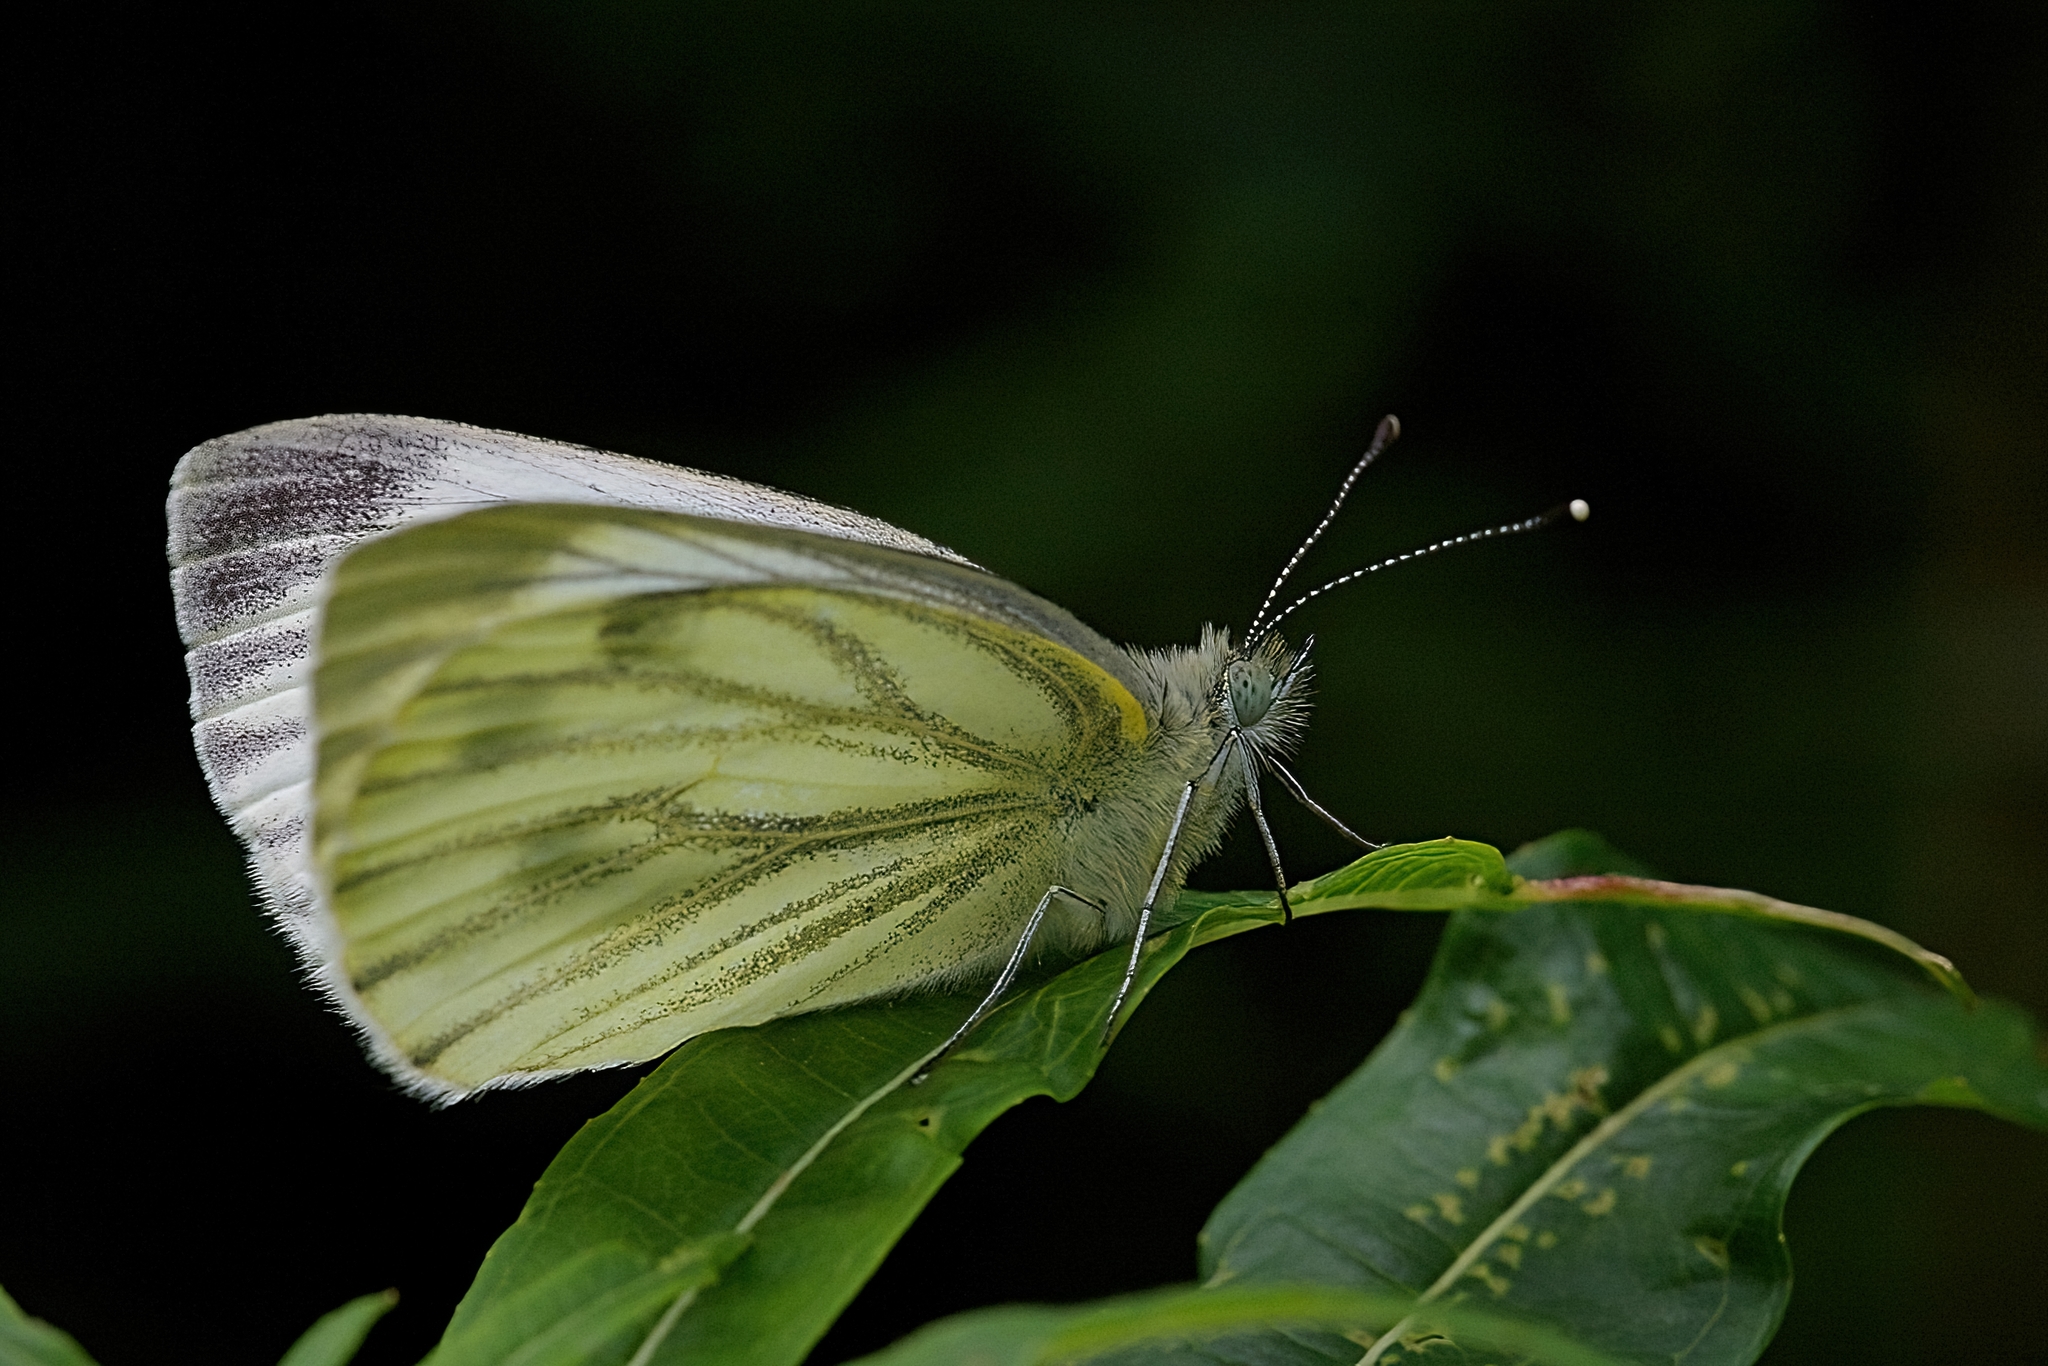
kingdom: Animalia
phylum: Arthropoda
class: Insecta
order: Lepidoptera
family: Pieridae
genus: Pieris
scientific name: Pieris napi
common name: Green-veined white
